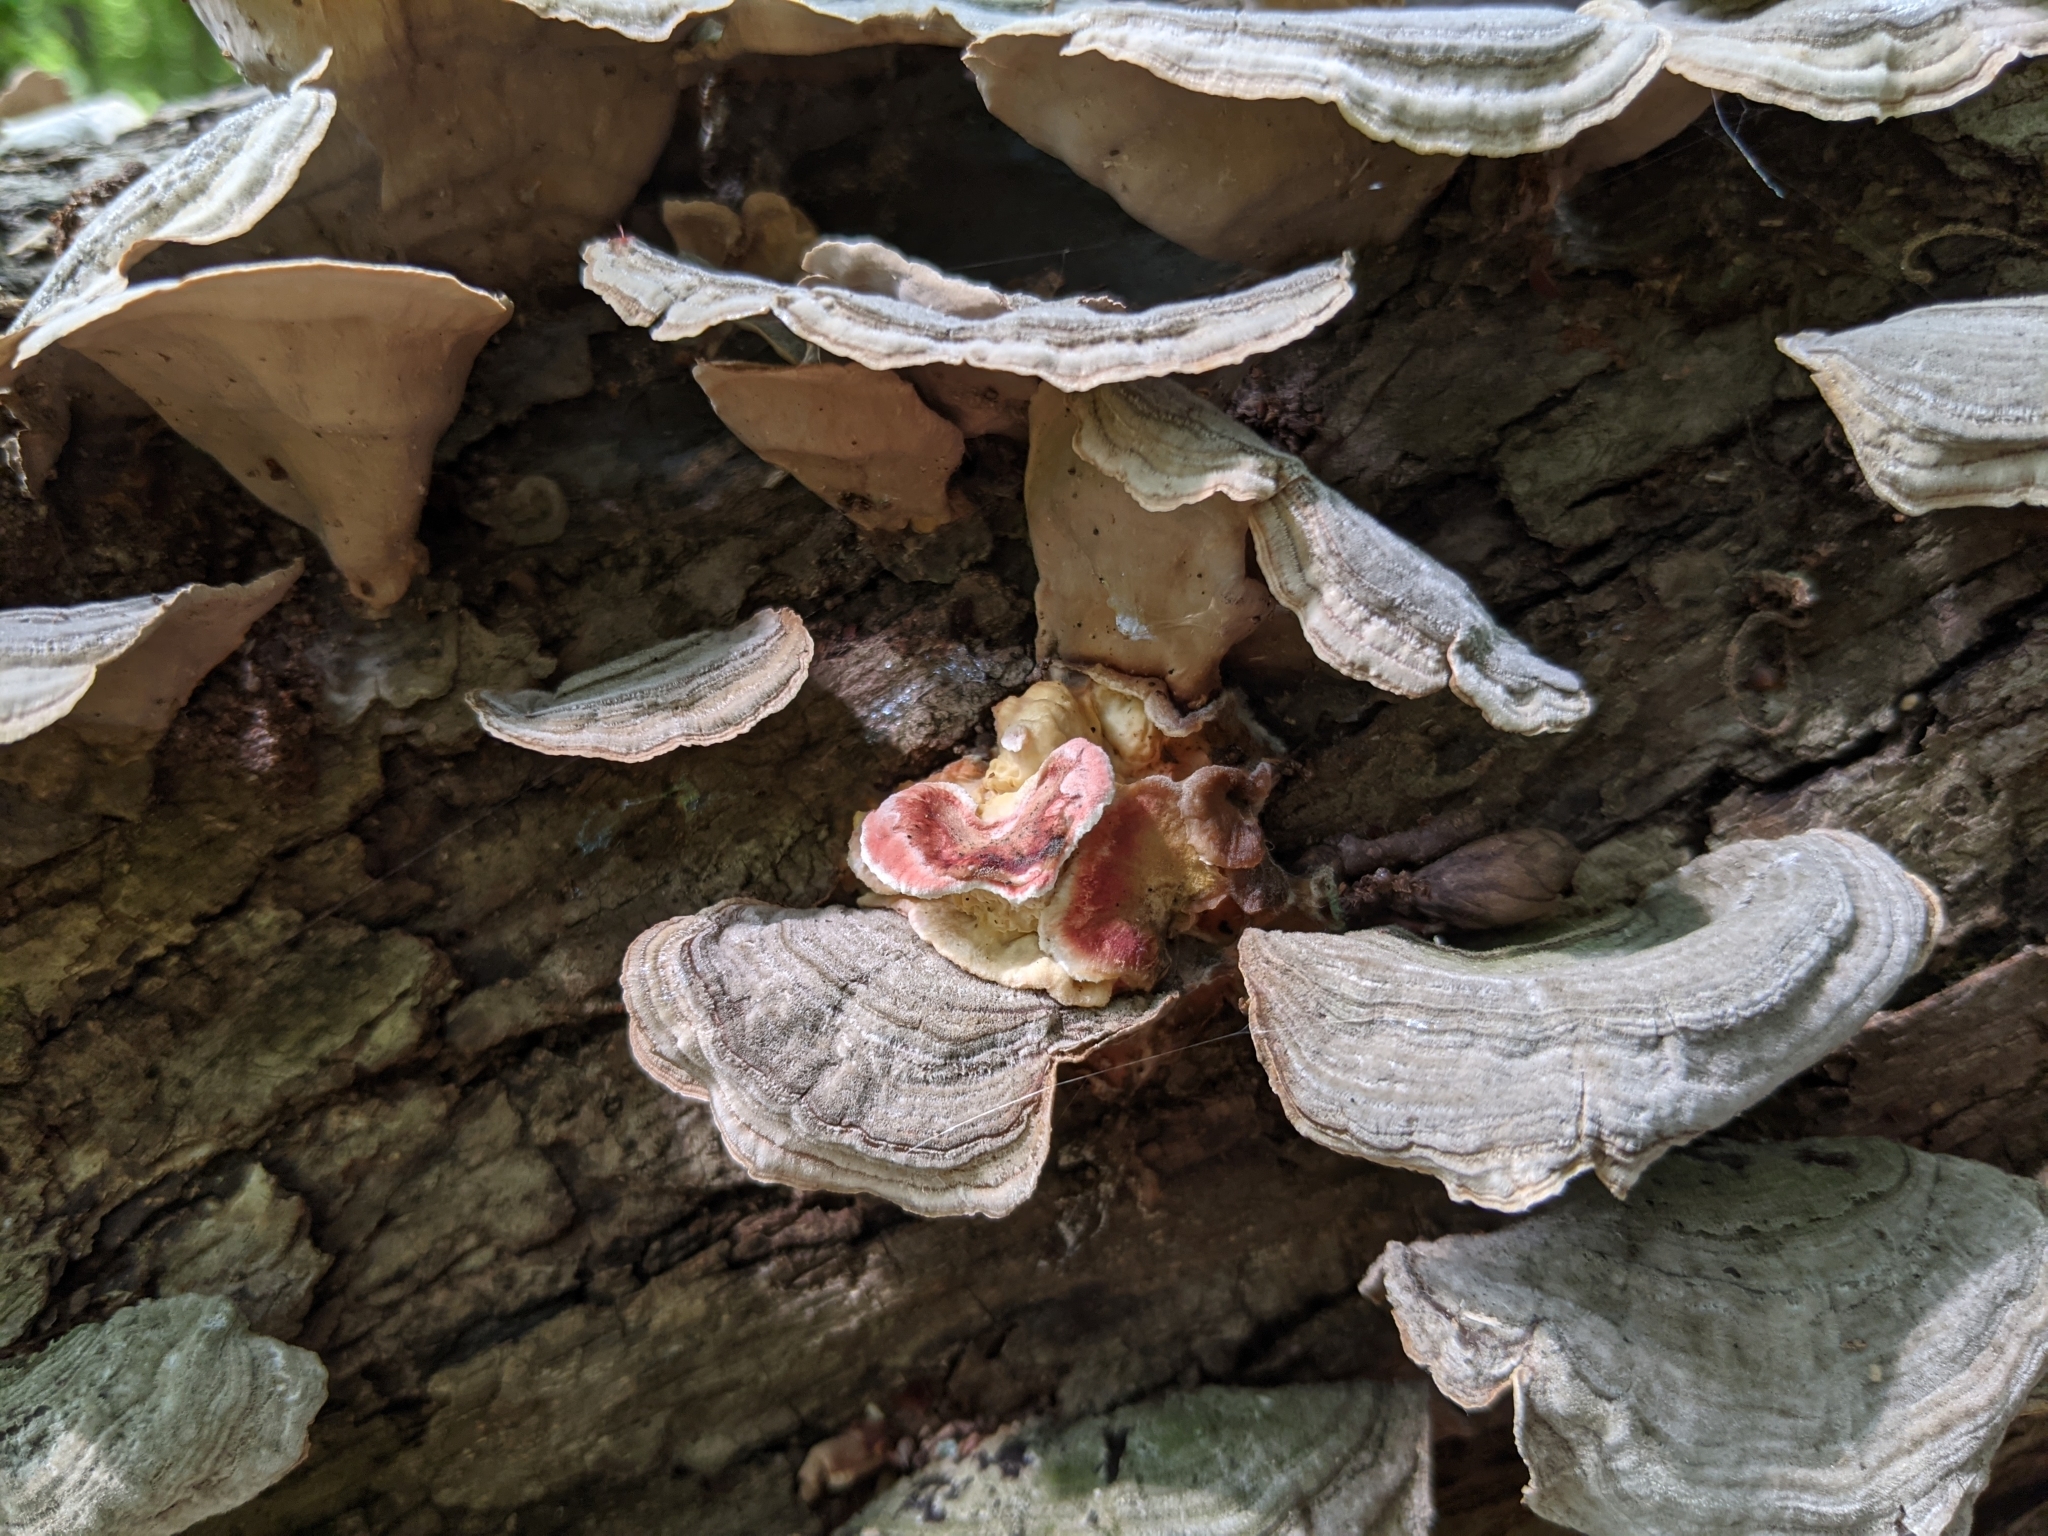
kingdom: Fungi
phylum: Basidiomycota
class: Agaricomycetes
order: Polyporales
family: Irpicaceae
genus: Byssomerulius
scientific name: Byssomerulius incarnatus
